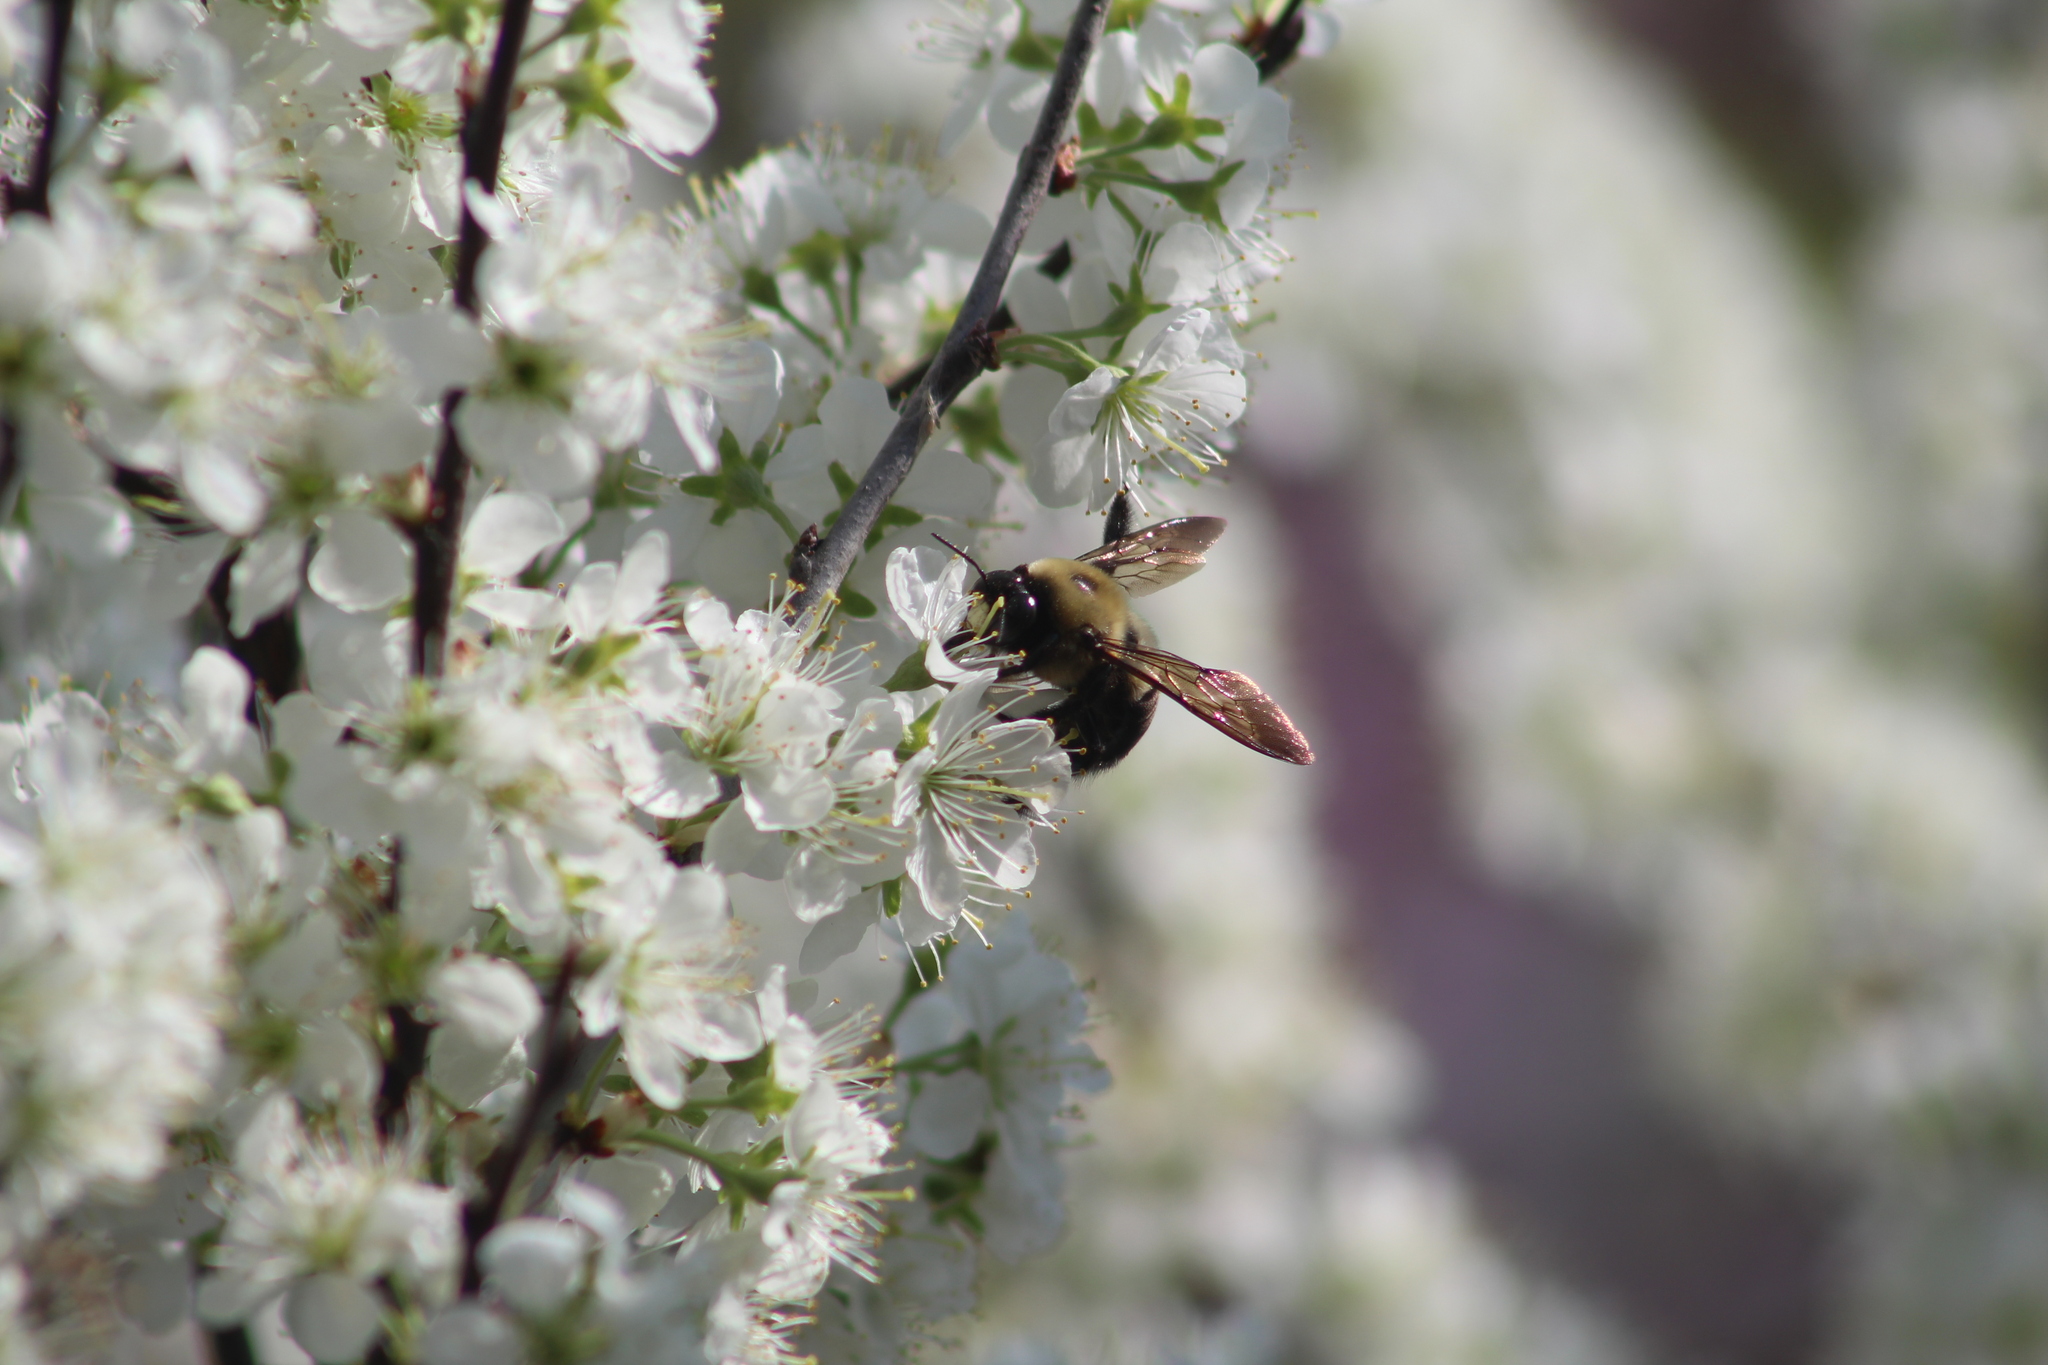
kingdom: Animalia
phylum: Arthropoda
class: Insecta
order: Hymenoptera
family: Apidae
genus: Xylocopa
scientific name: Xylocopa virginica
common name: Carpenter bee
